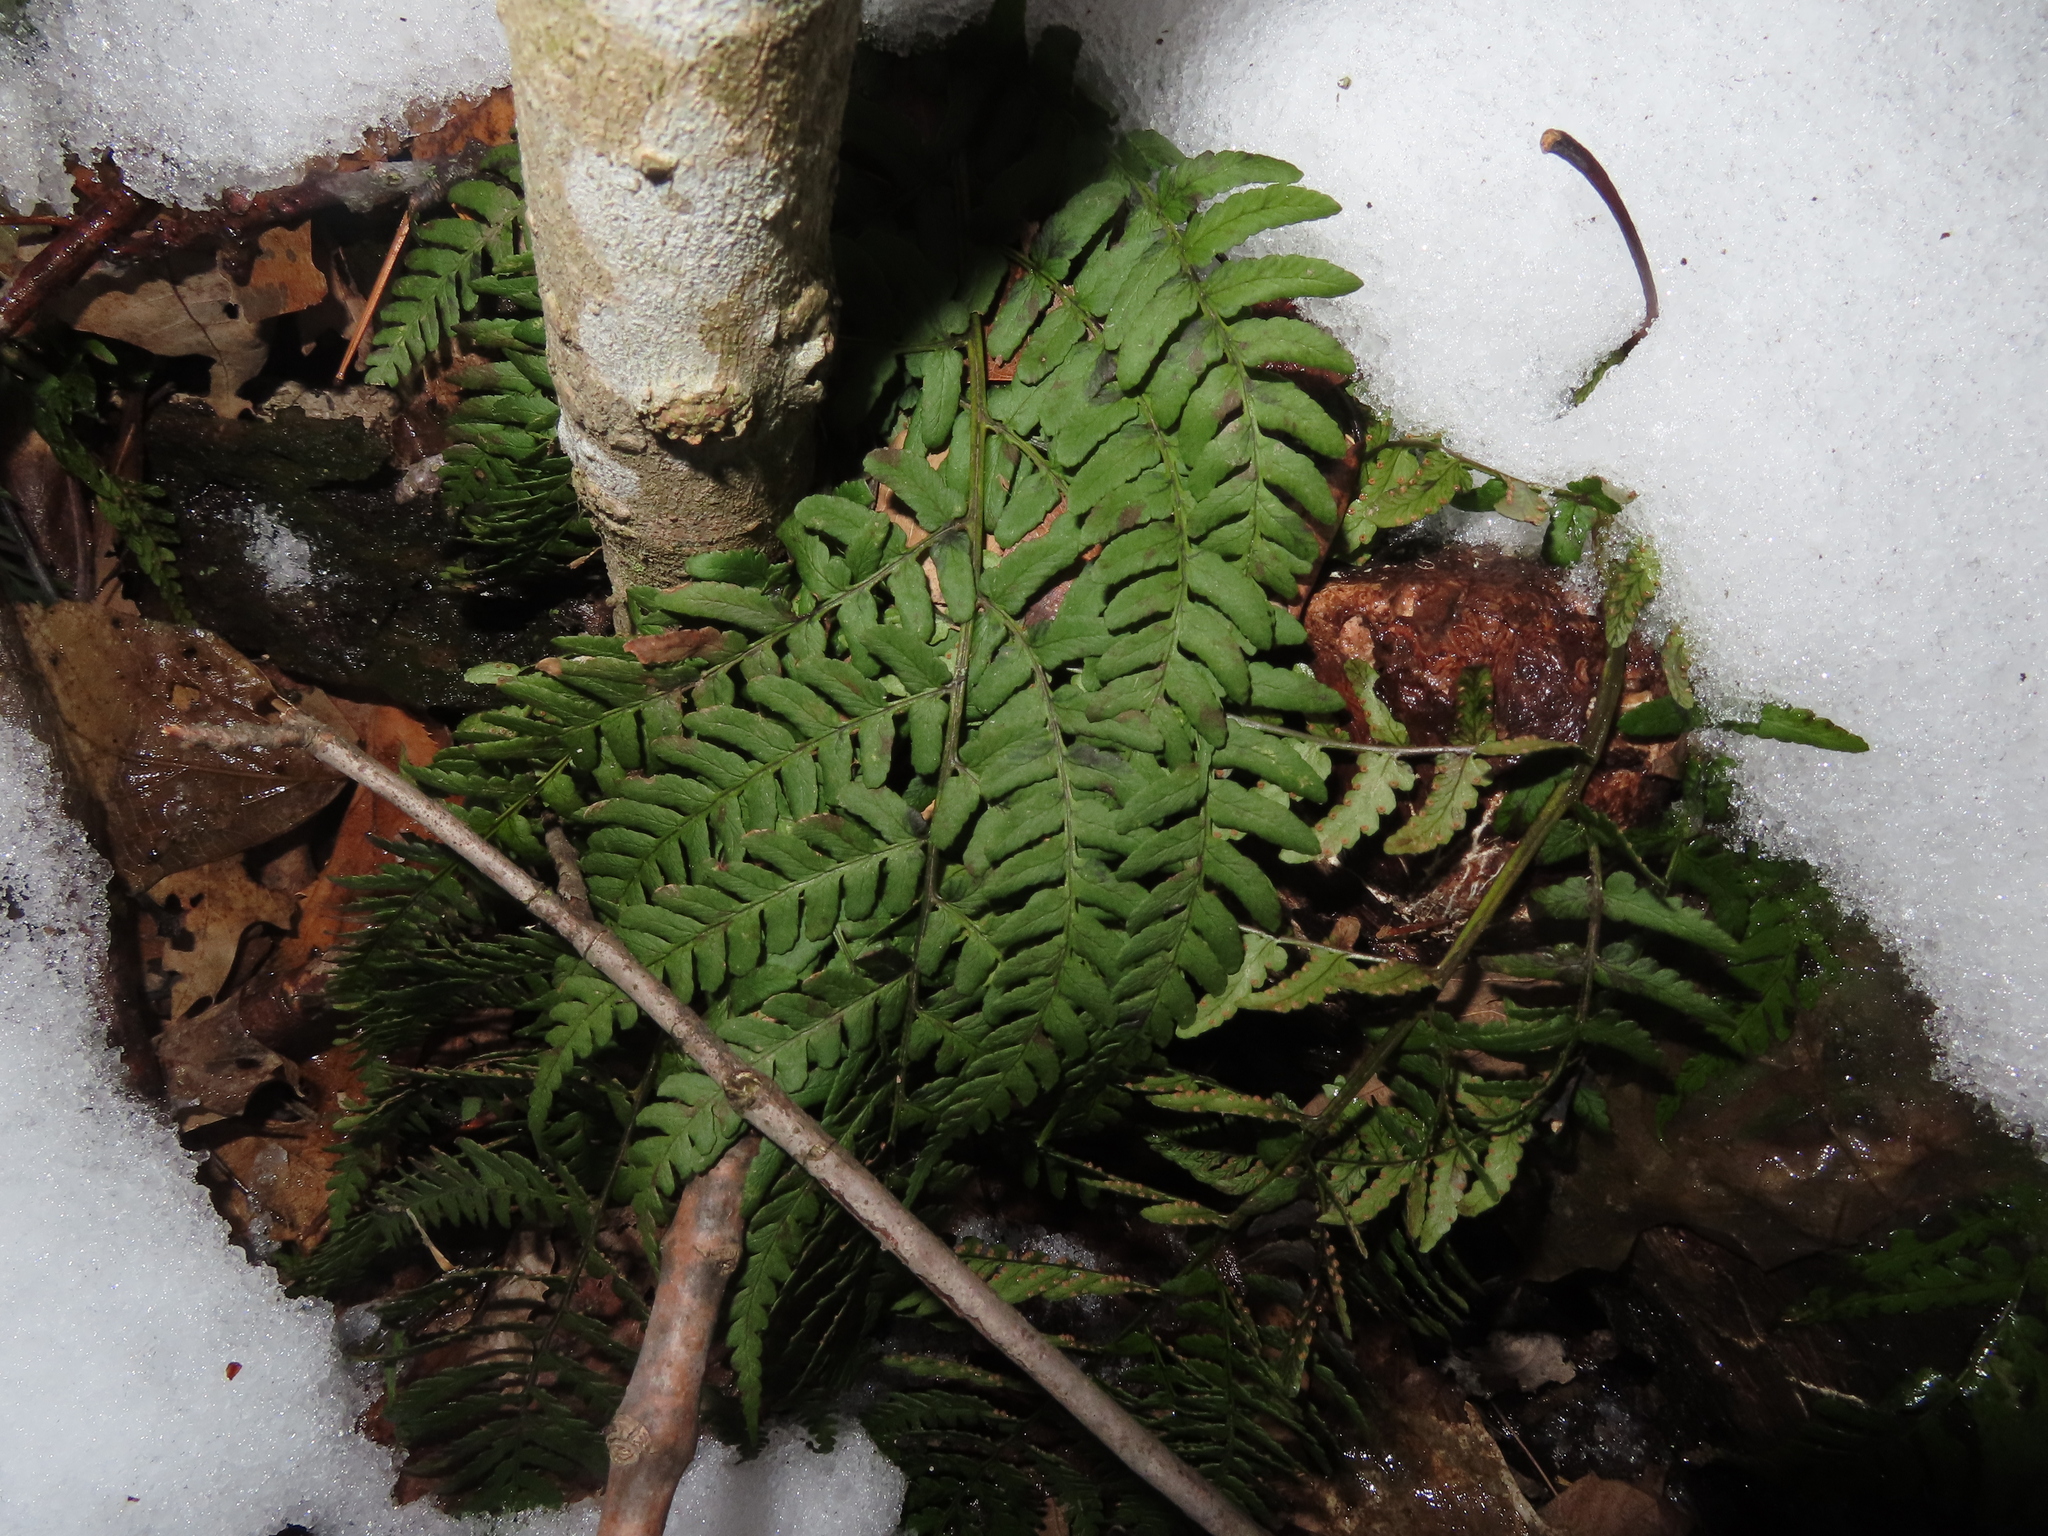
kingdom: Plantae
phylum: Tracheophyta
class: Polypodiopsida
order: Polypodiales
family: Dryopteridaceae
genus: Dryopteris
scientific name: Dryopteris marginalis
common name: Marginal wood fern
